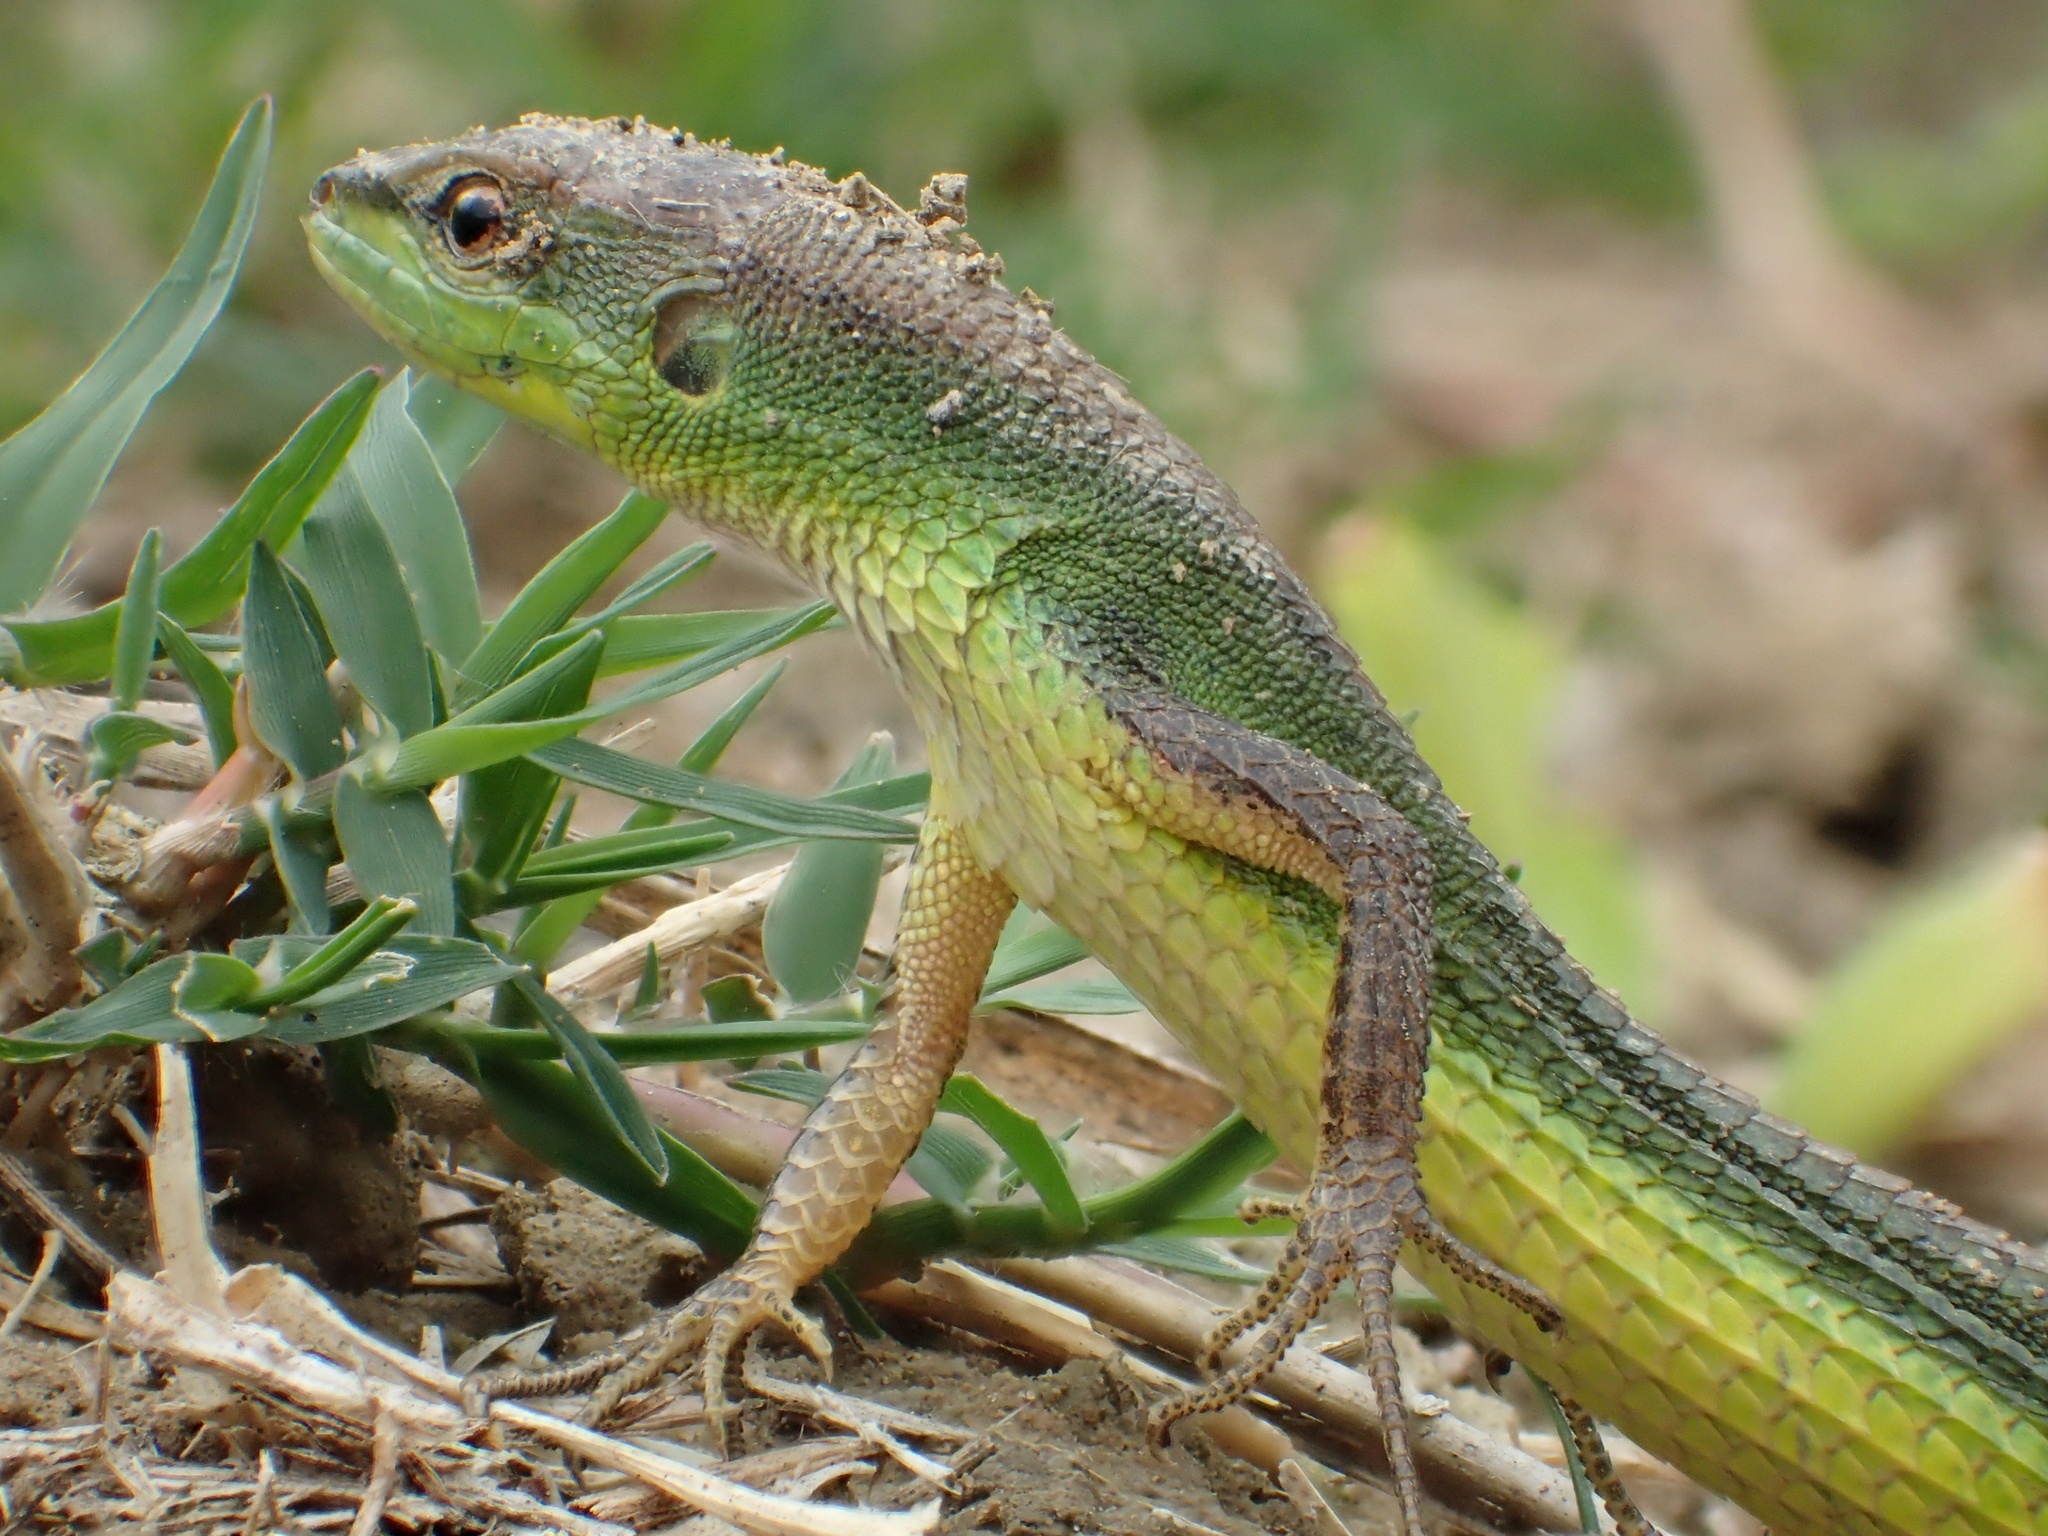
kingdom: Animalia
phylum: Chordata
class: Squamata
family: Lacertidae
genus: Takydromus
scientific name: Takydromus stejnegeri
